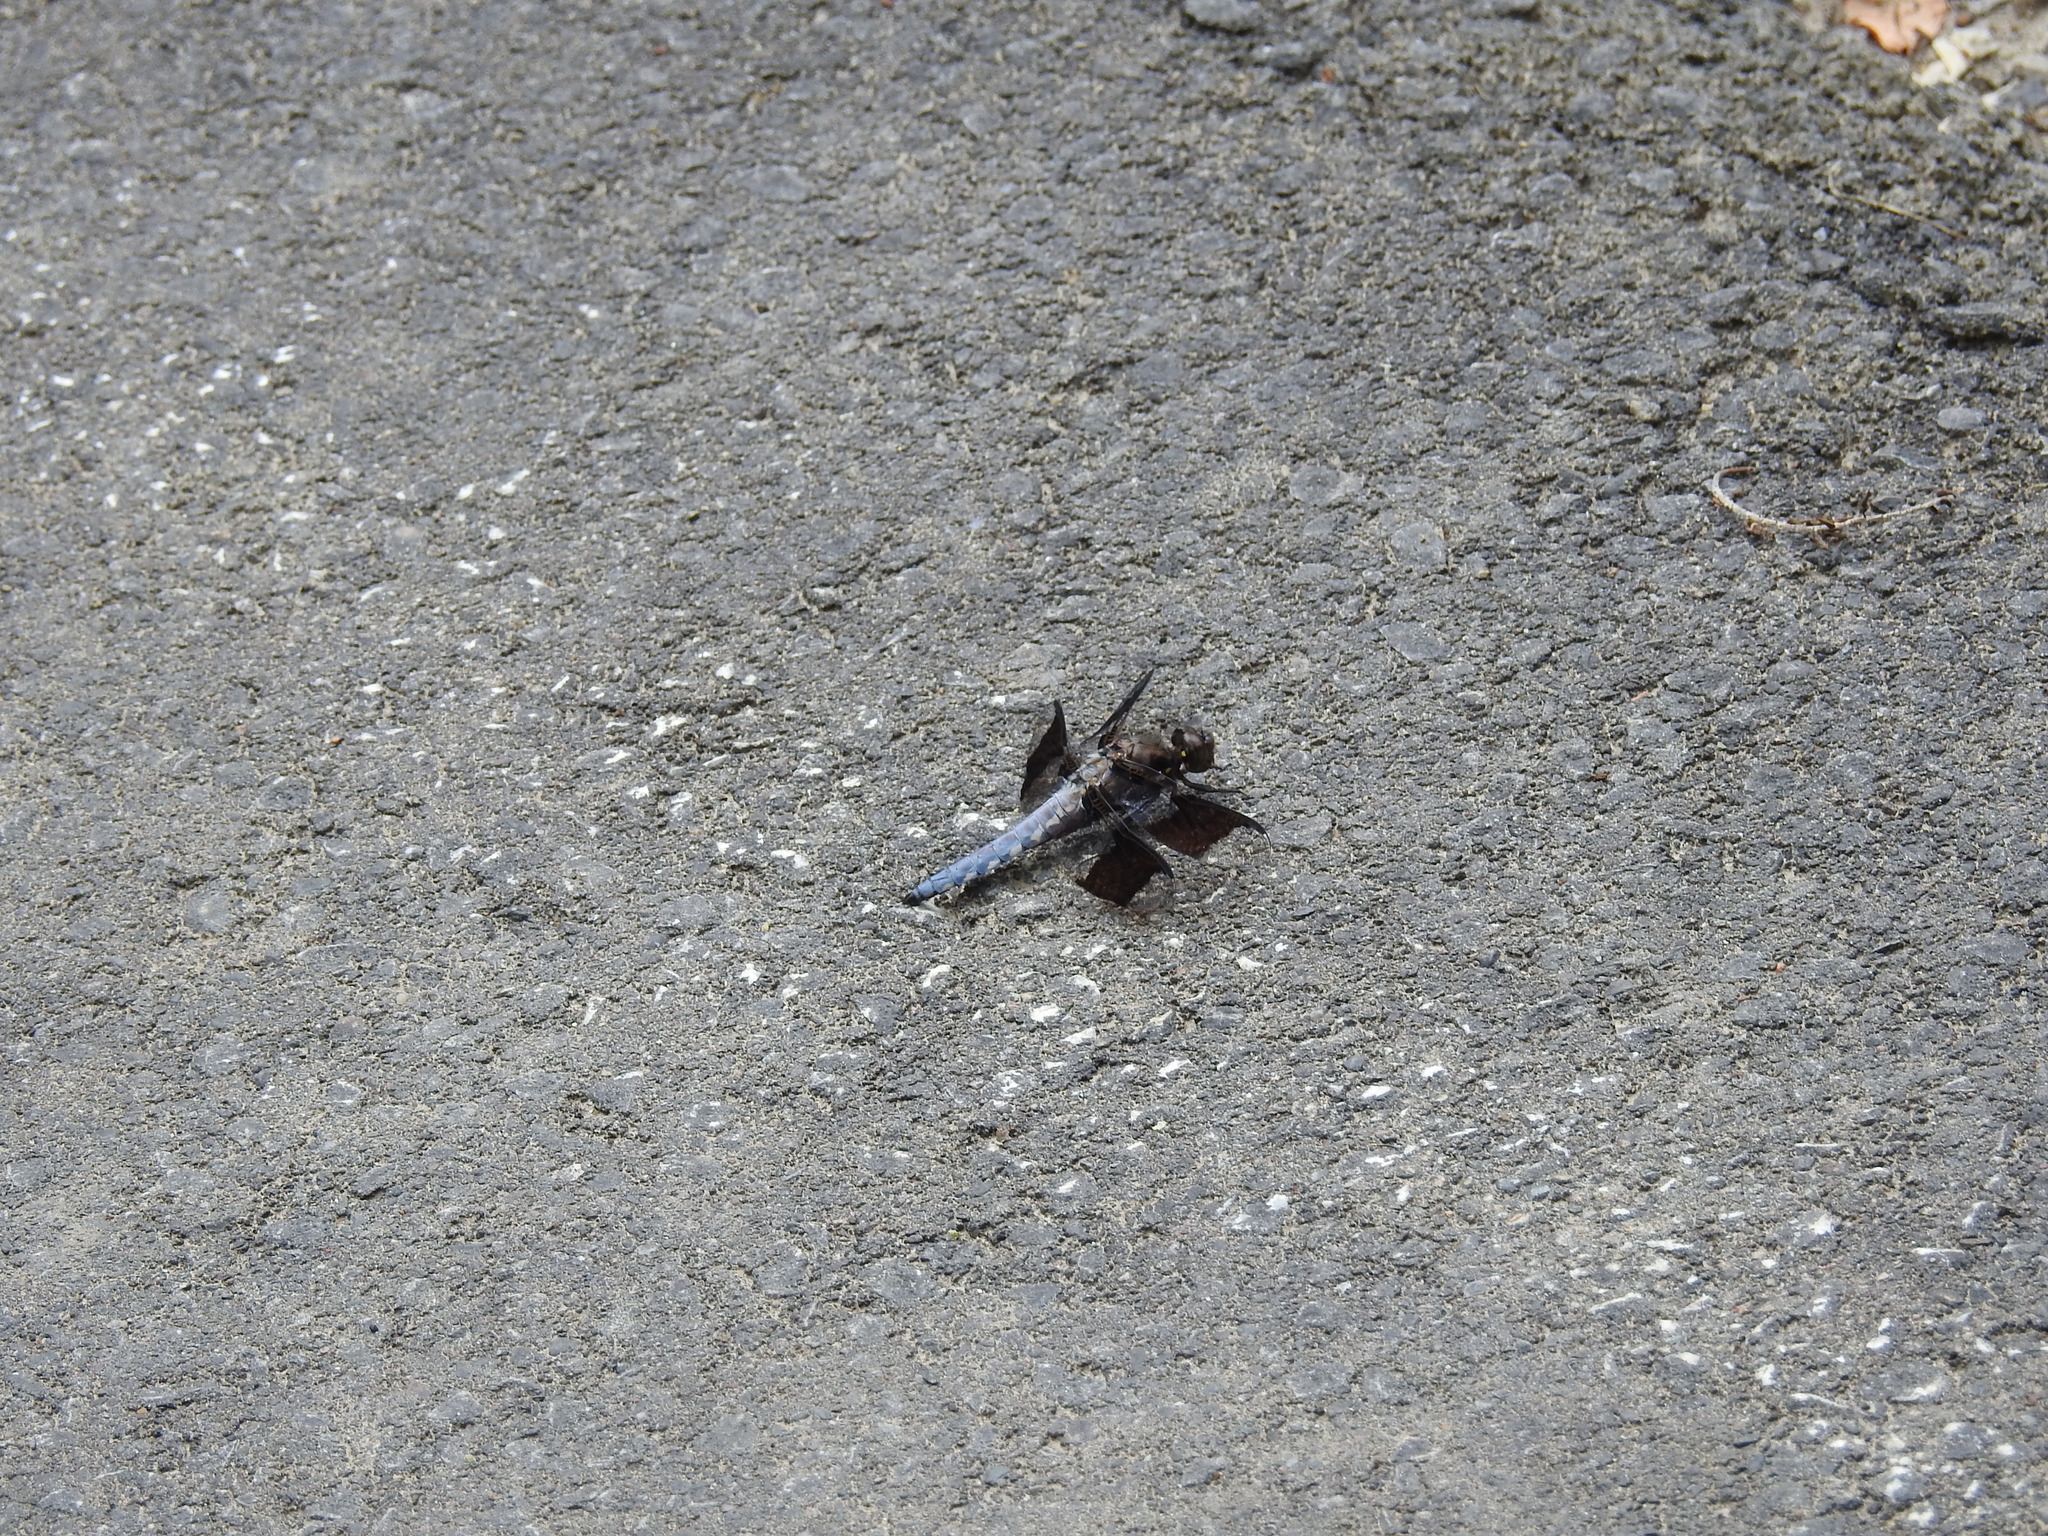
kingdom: Animalia
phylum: Arthropoda
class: Insecta
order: Odonata
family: Libellulidae
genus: Plathemis
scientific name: Plathemis lydia
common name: Common whitetail
